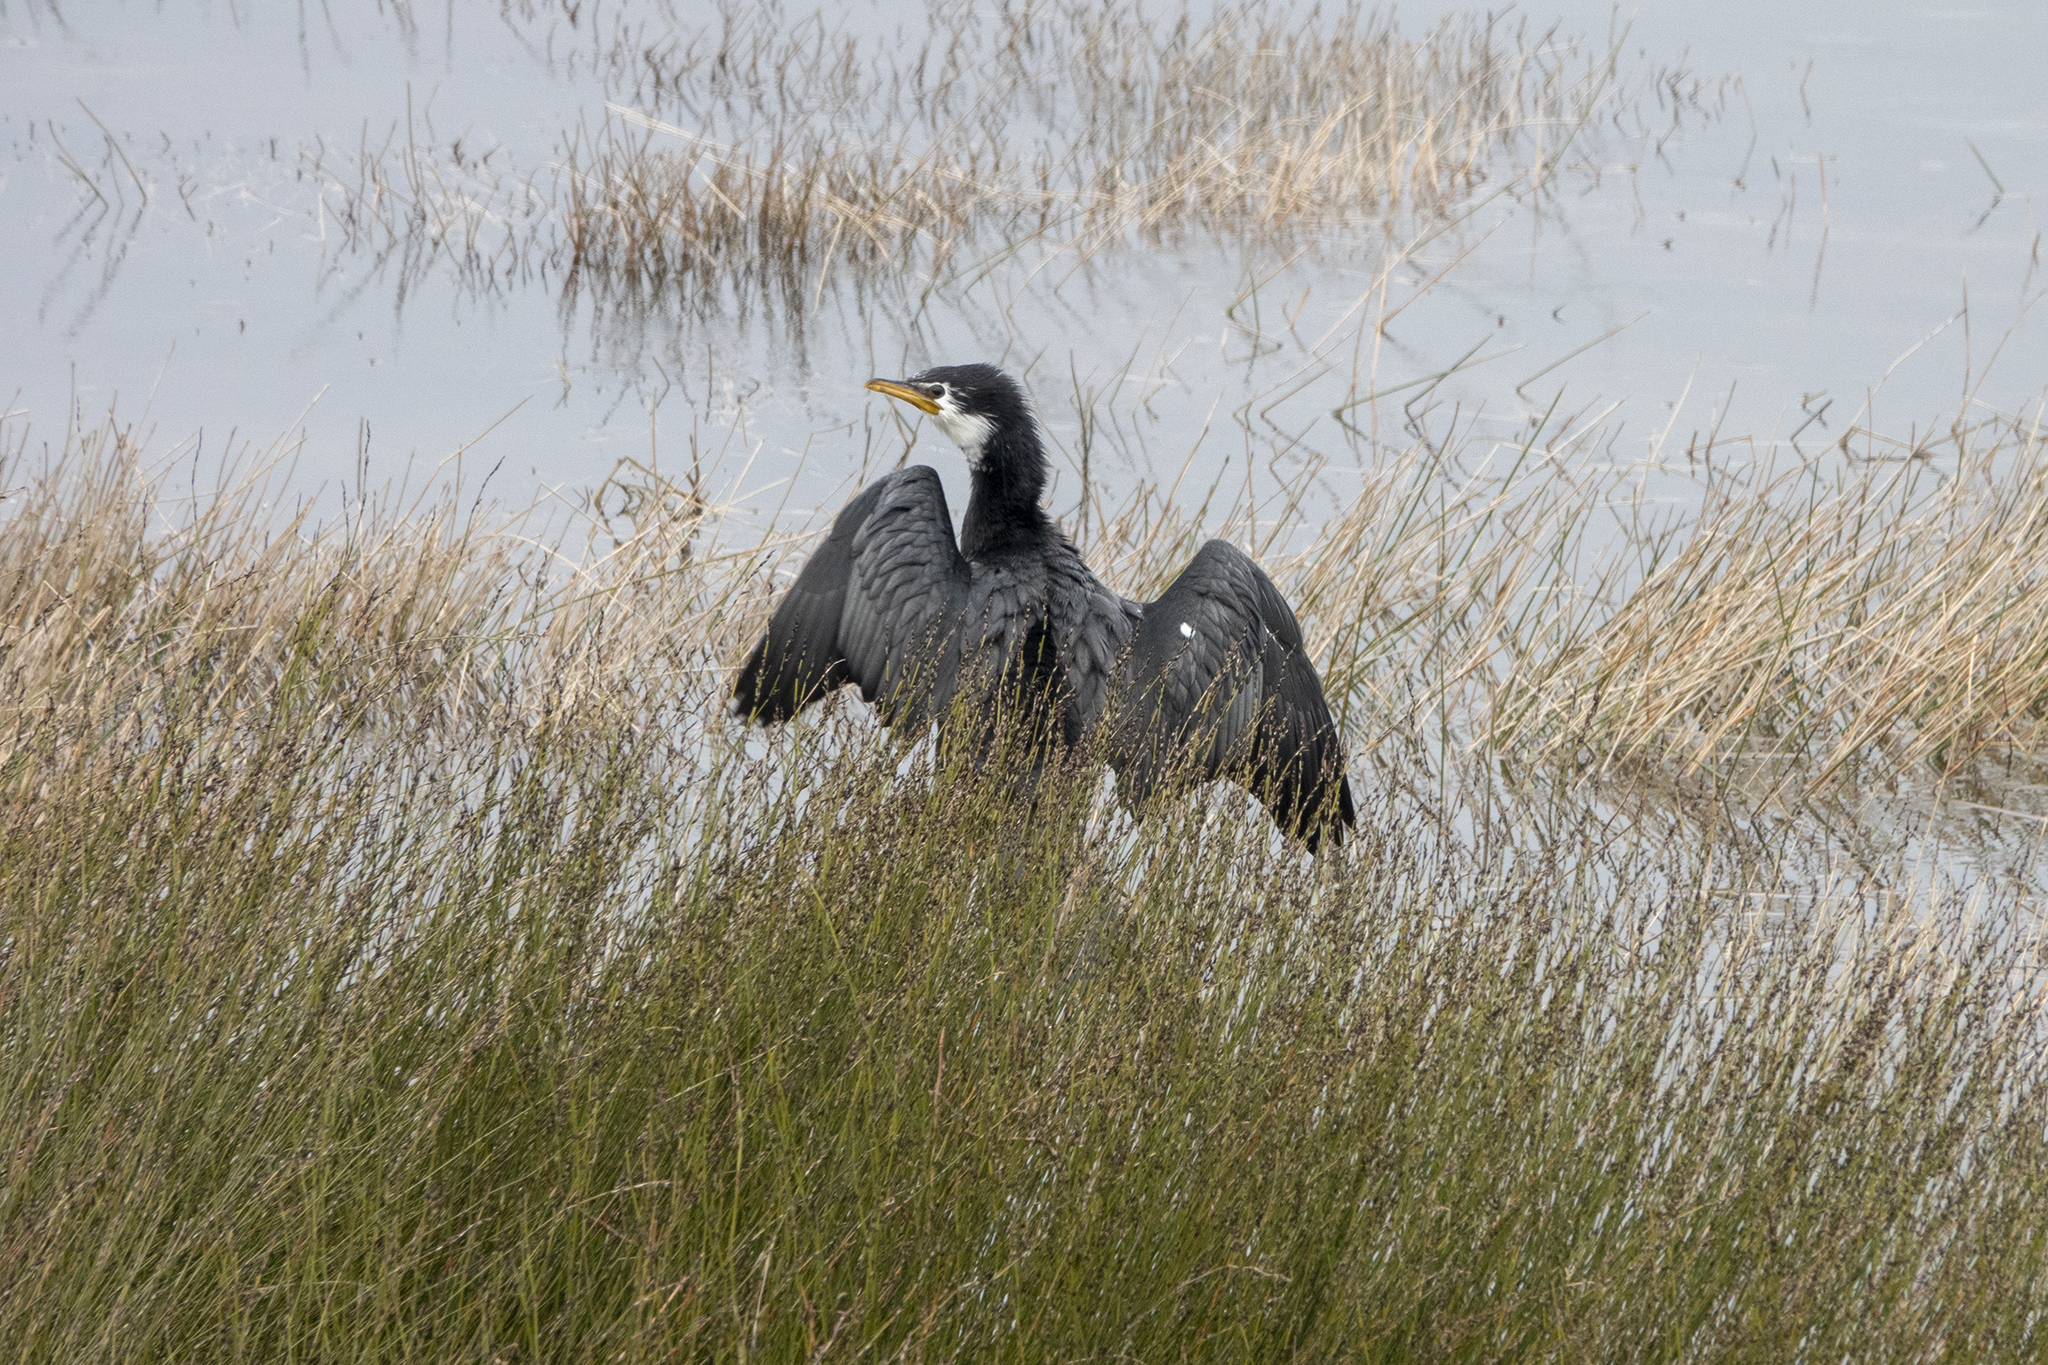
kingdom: Animalia
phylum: Chordata
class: Aves
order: Suliformes
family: Phalacrocoracidae
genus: Microcarbo
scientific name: Microcarbo melanoleucos
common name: Little pied cormorant
